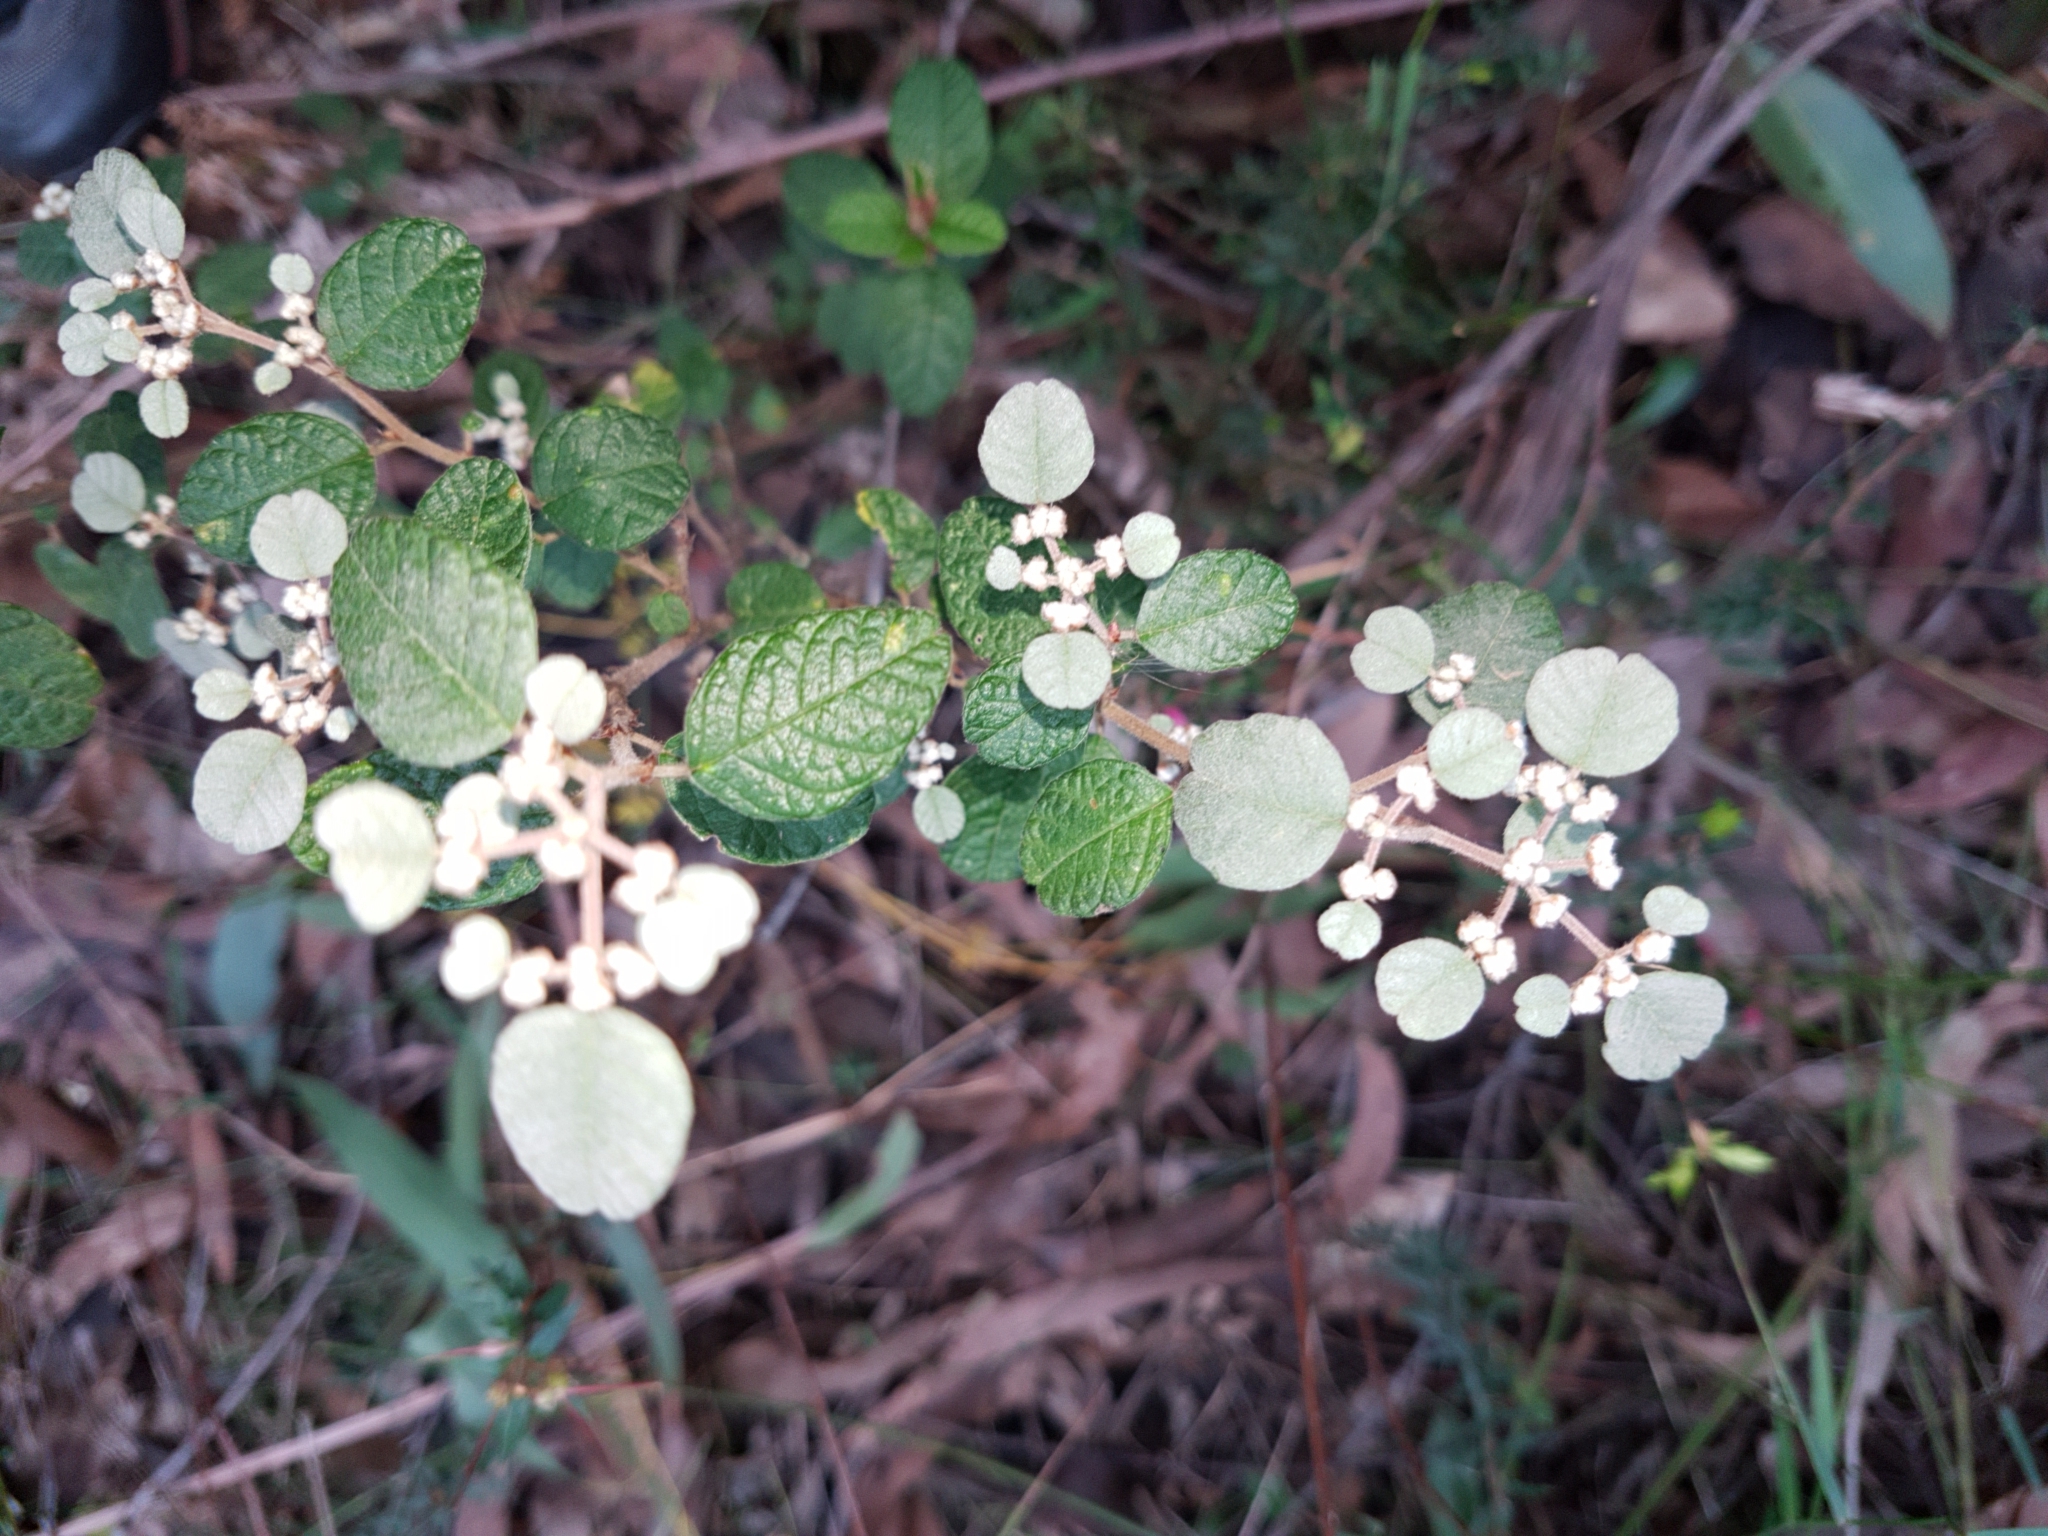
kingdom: Plantae
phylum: Tracheophyta
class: Magnoliopsida
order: Rosales
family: Rhamnaceae
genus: Spyridium
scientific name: Spyridium parvifolium
